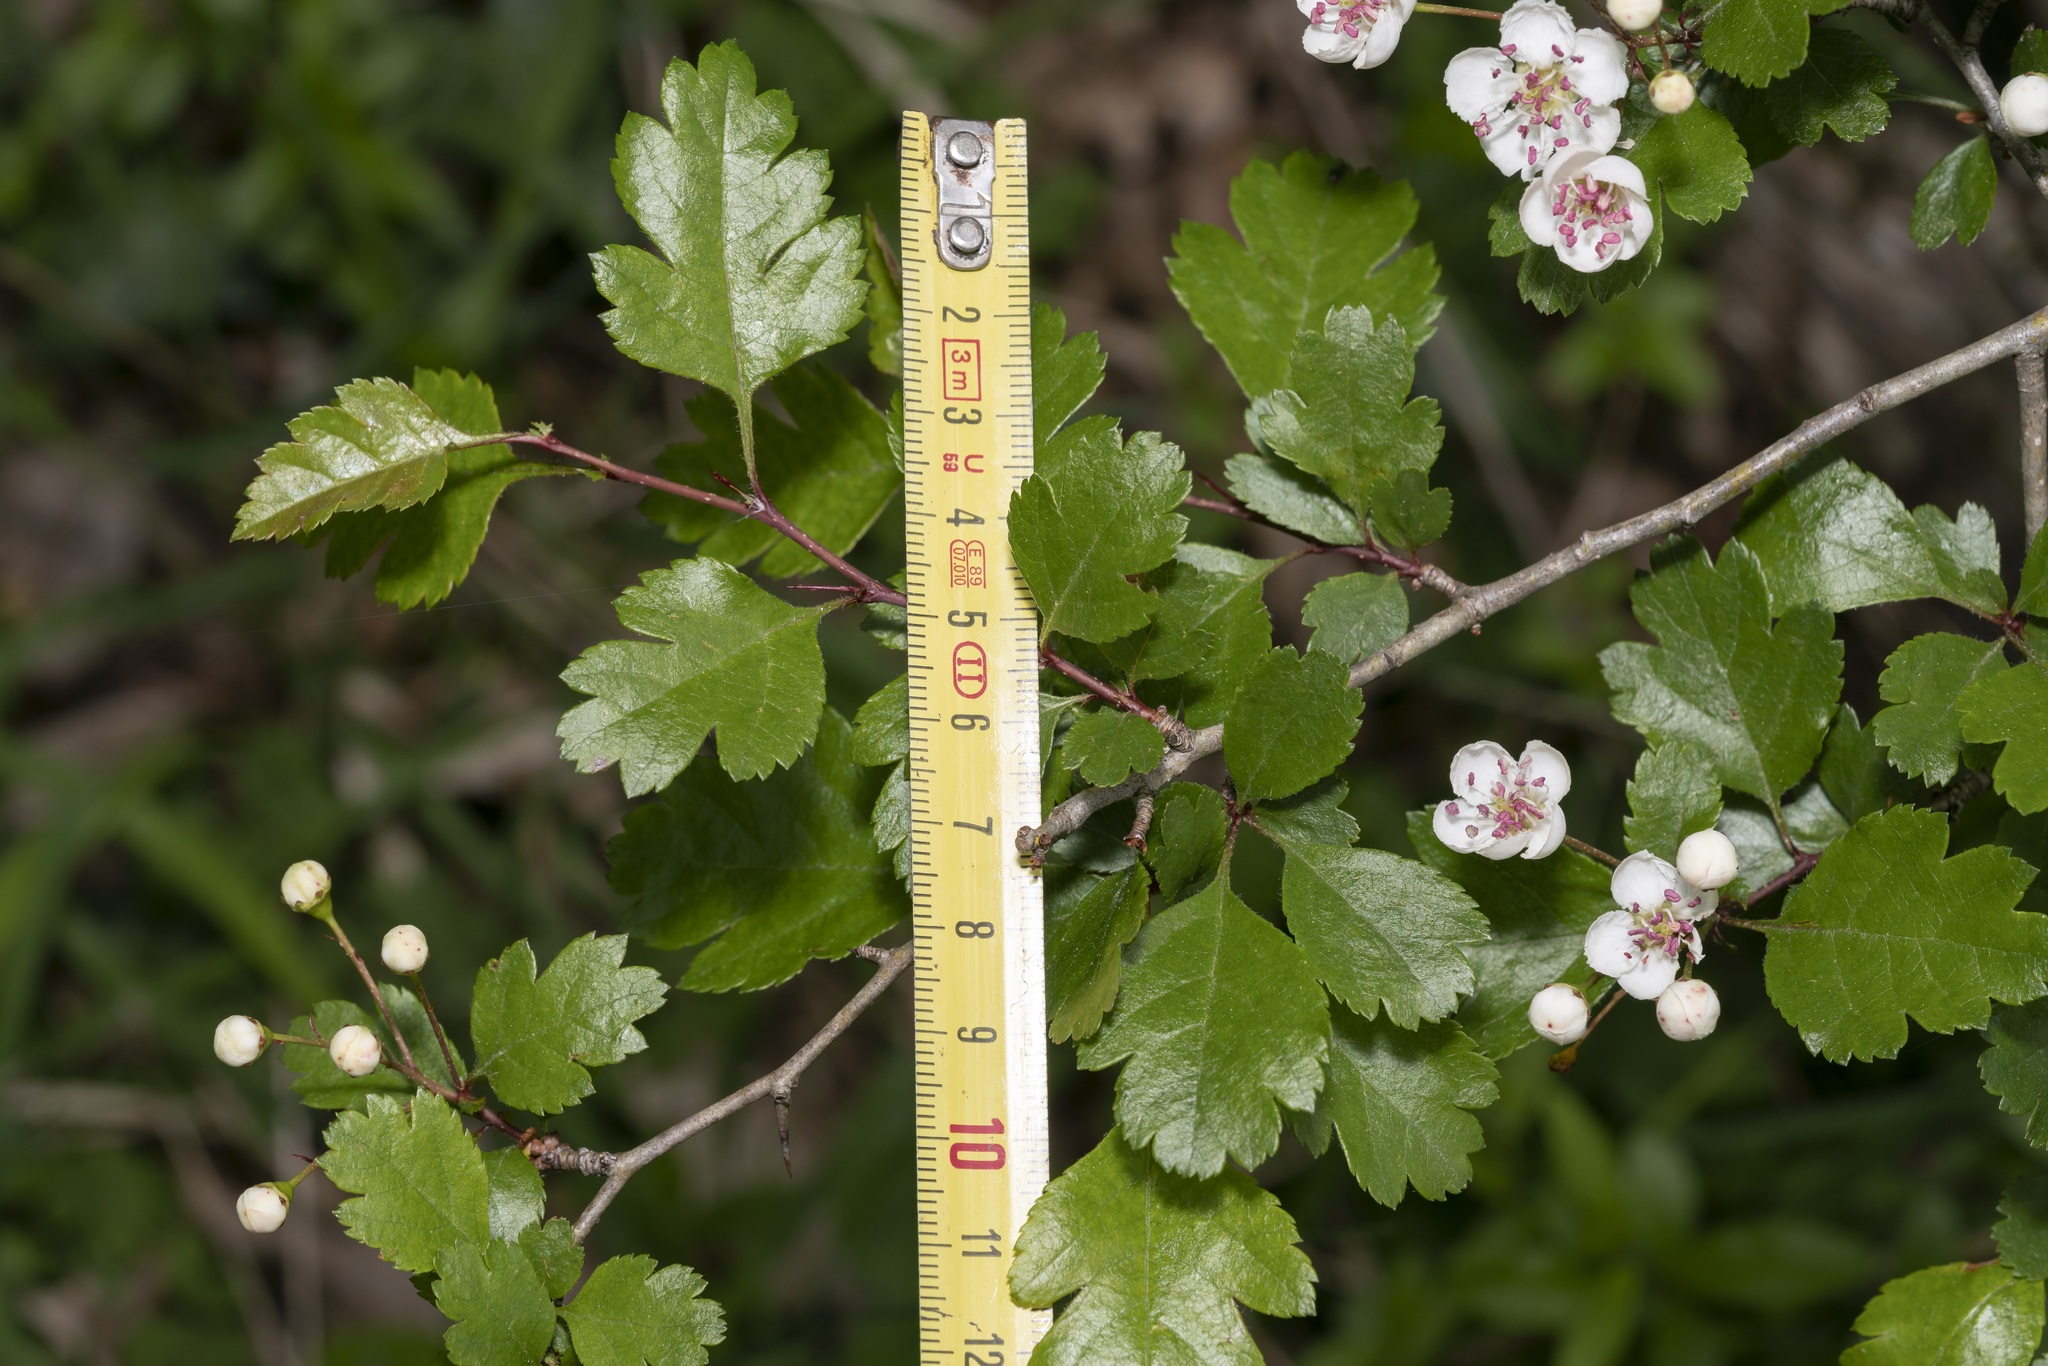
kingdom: Plantae
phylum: Tracheophyta
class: Magnoliopsida
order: Rosales
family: Rosaceae
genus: Crataegus
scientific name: Crataegus laevigata
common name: Midland hawthorn
